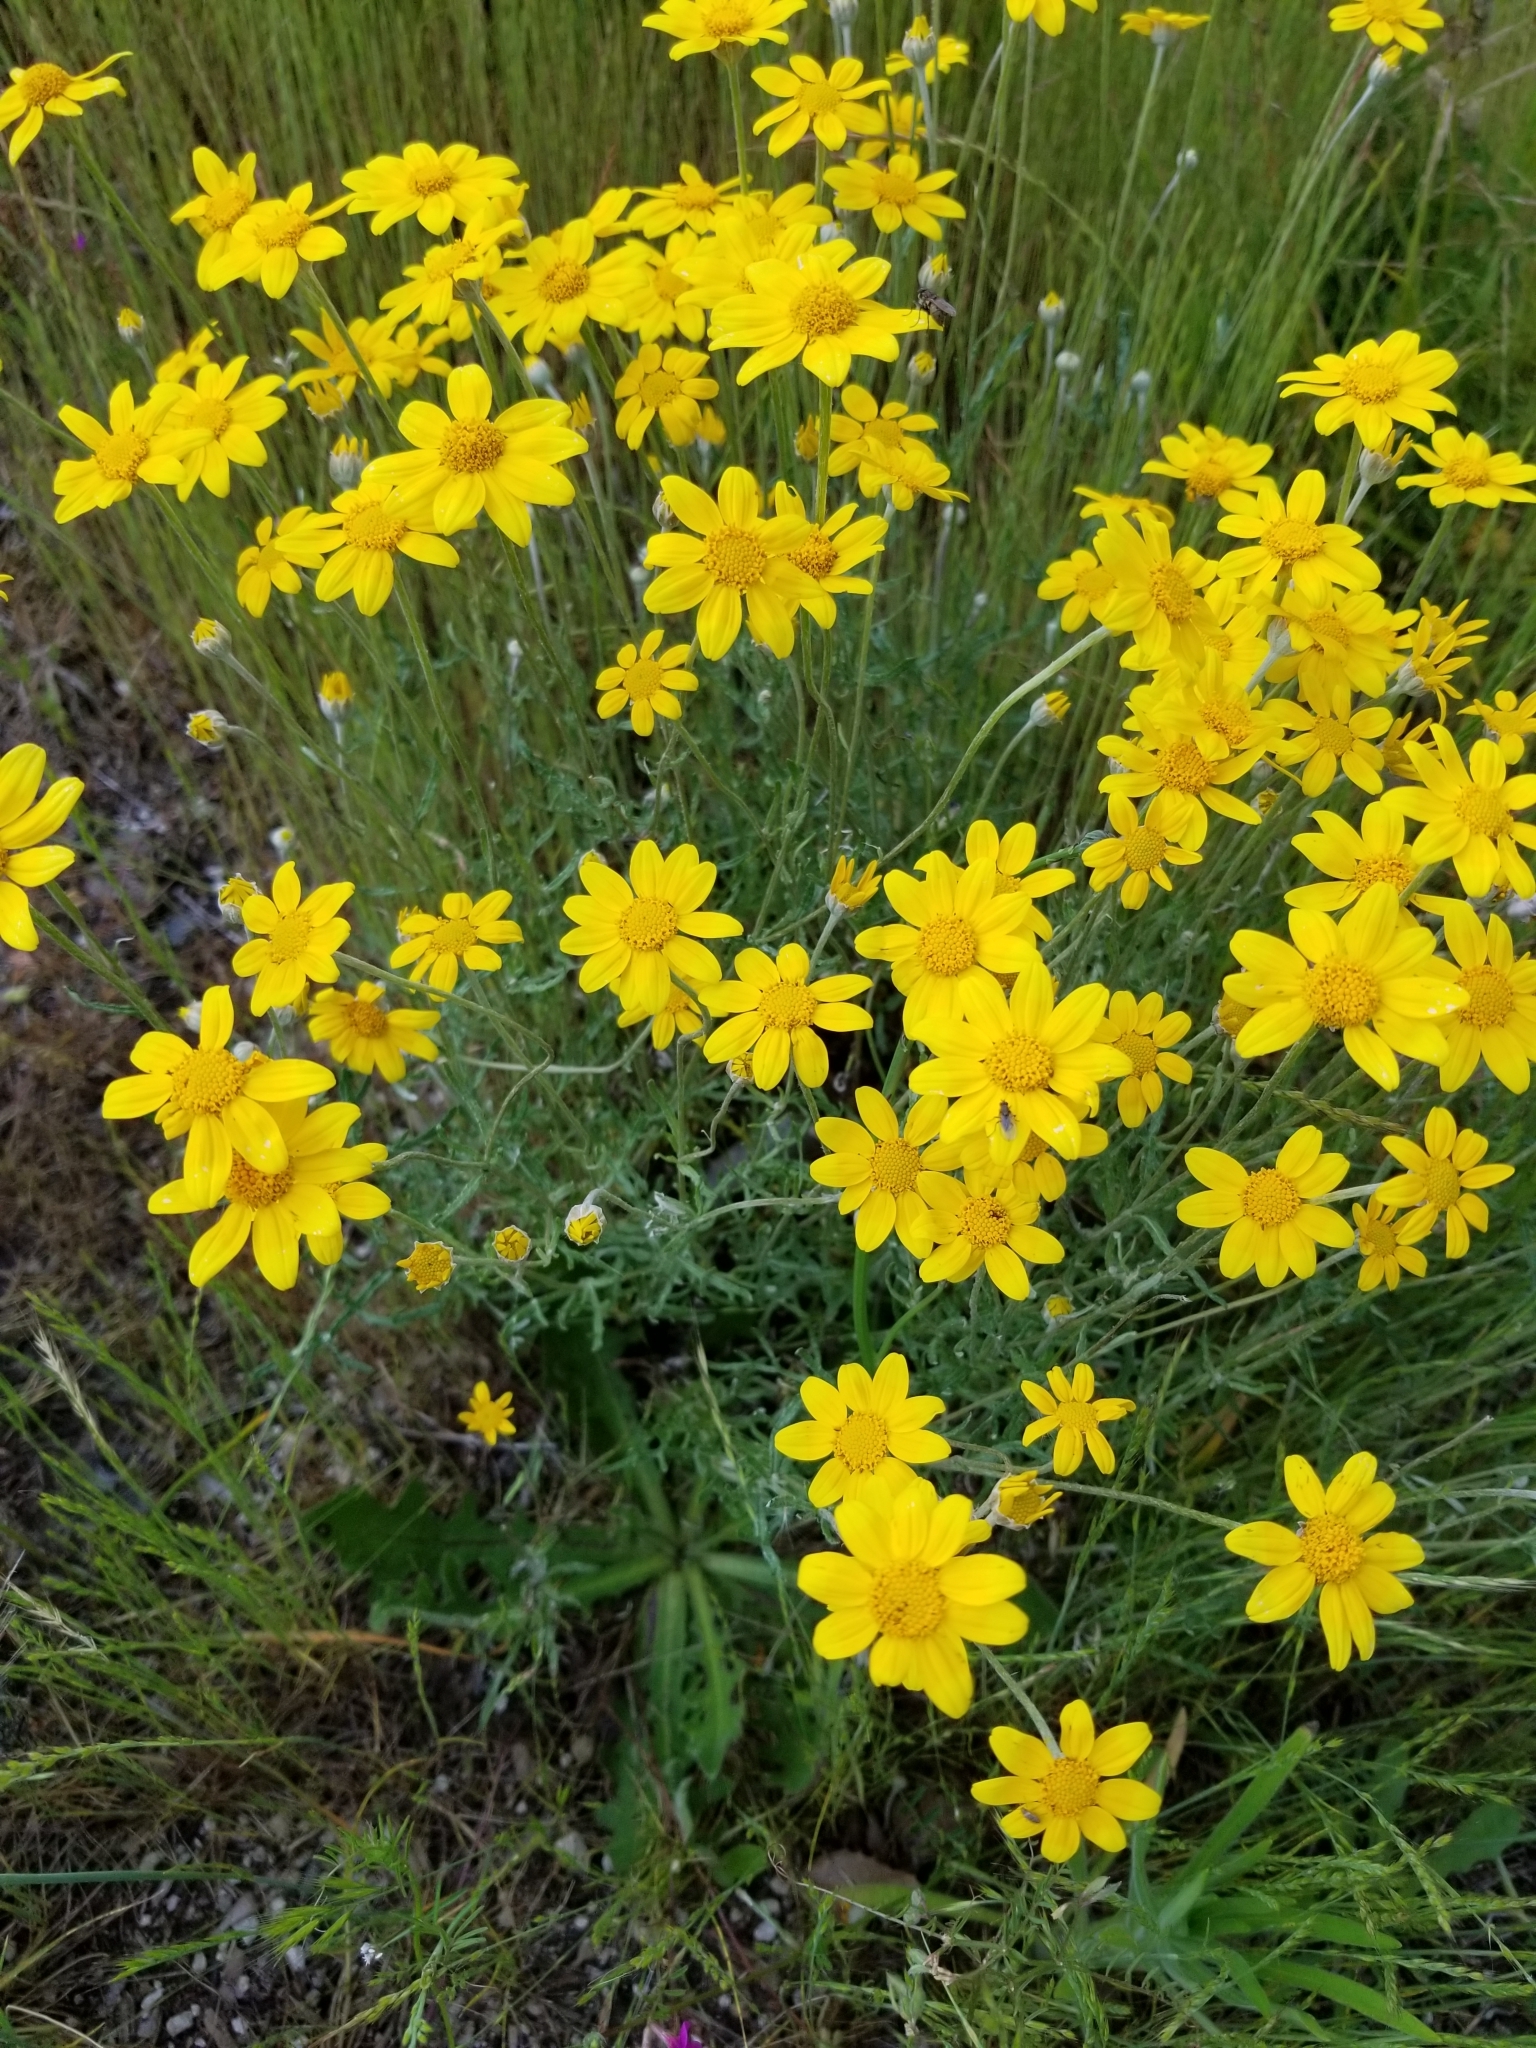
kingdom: Plantae
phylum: Tracheophyta
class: Magnoliopsida
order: Asterales
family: Asteraceae
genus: Eriophyllum
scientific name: Eriophyllum lanatum
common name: Common woolly-sunflower
